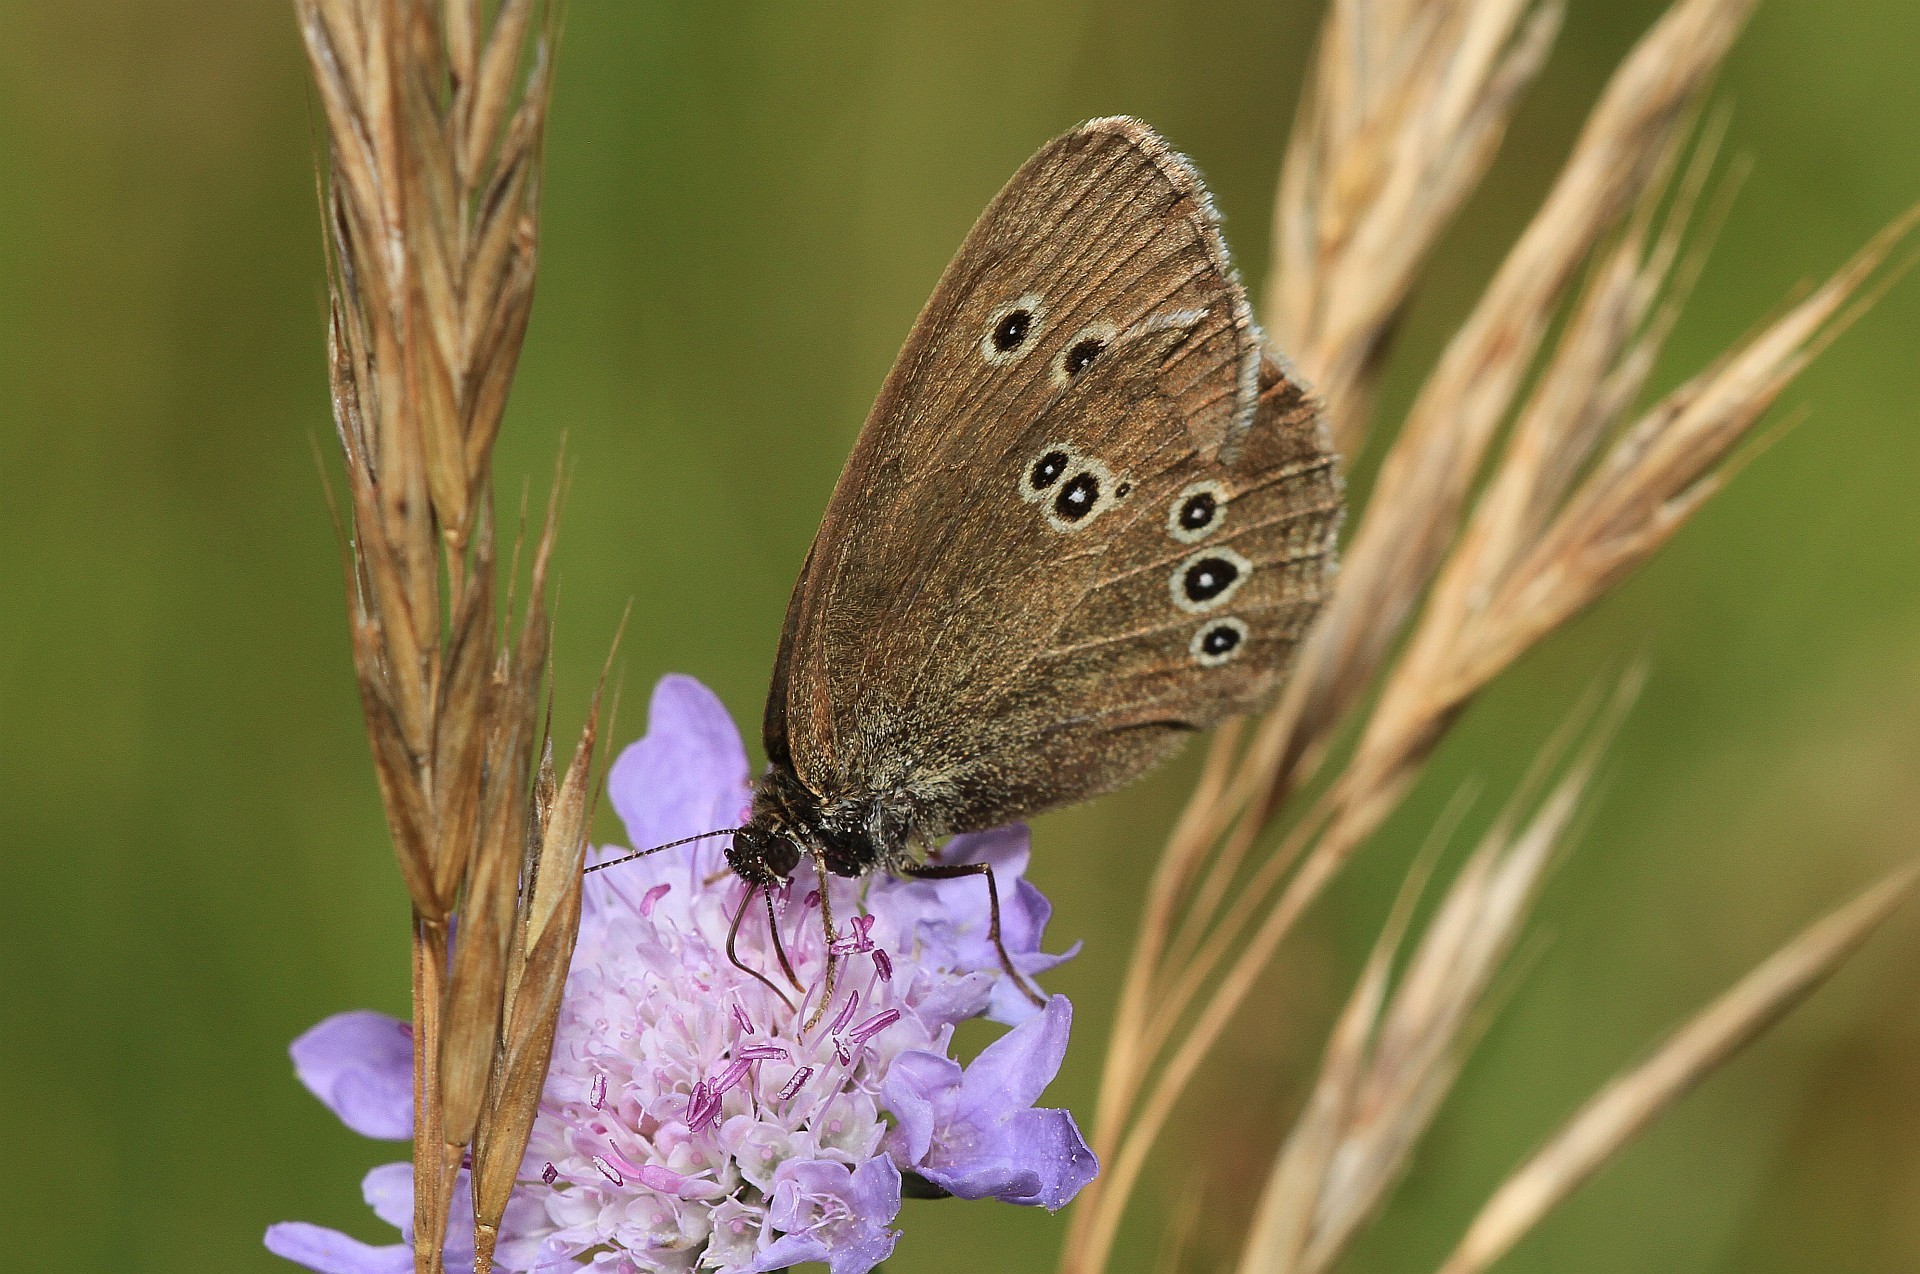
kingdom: Animalia
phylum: Arthropoda
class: Insecta
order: Lepidoptera
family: Nymphalidae
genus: Aphantopus
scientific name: Aphantopus hyperantus
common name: Ringlet
